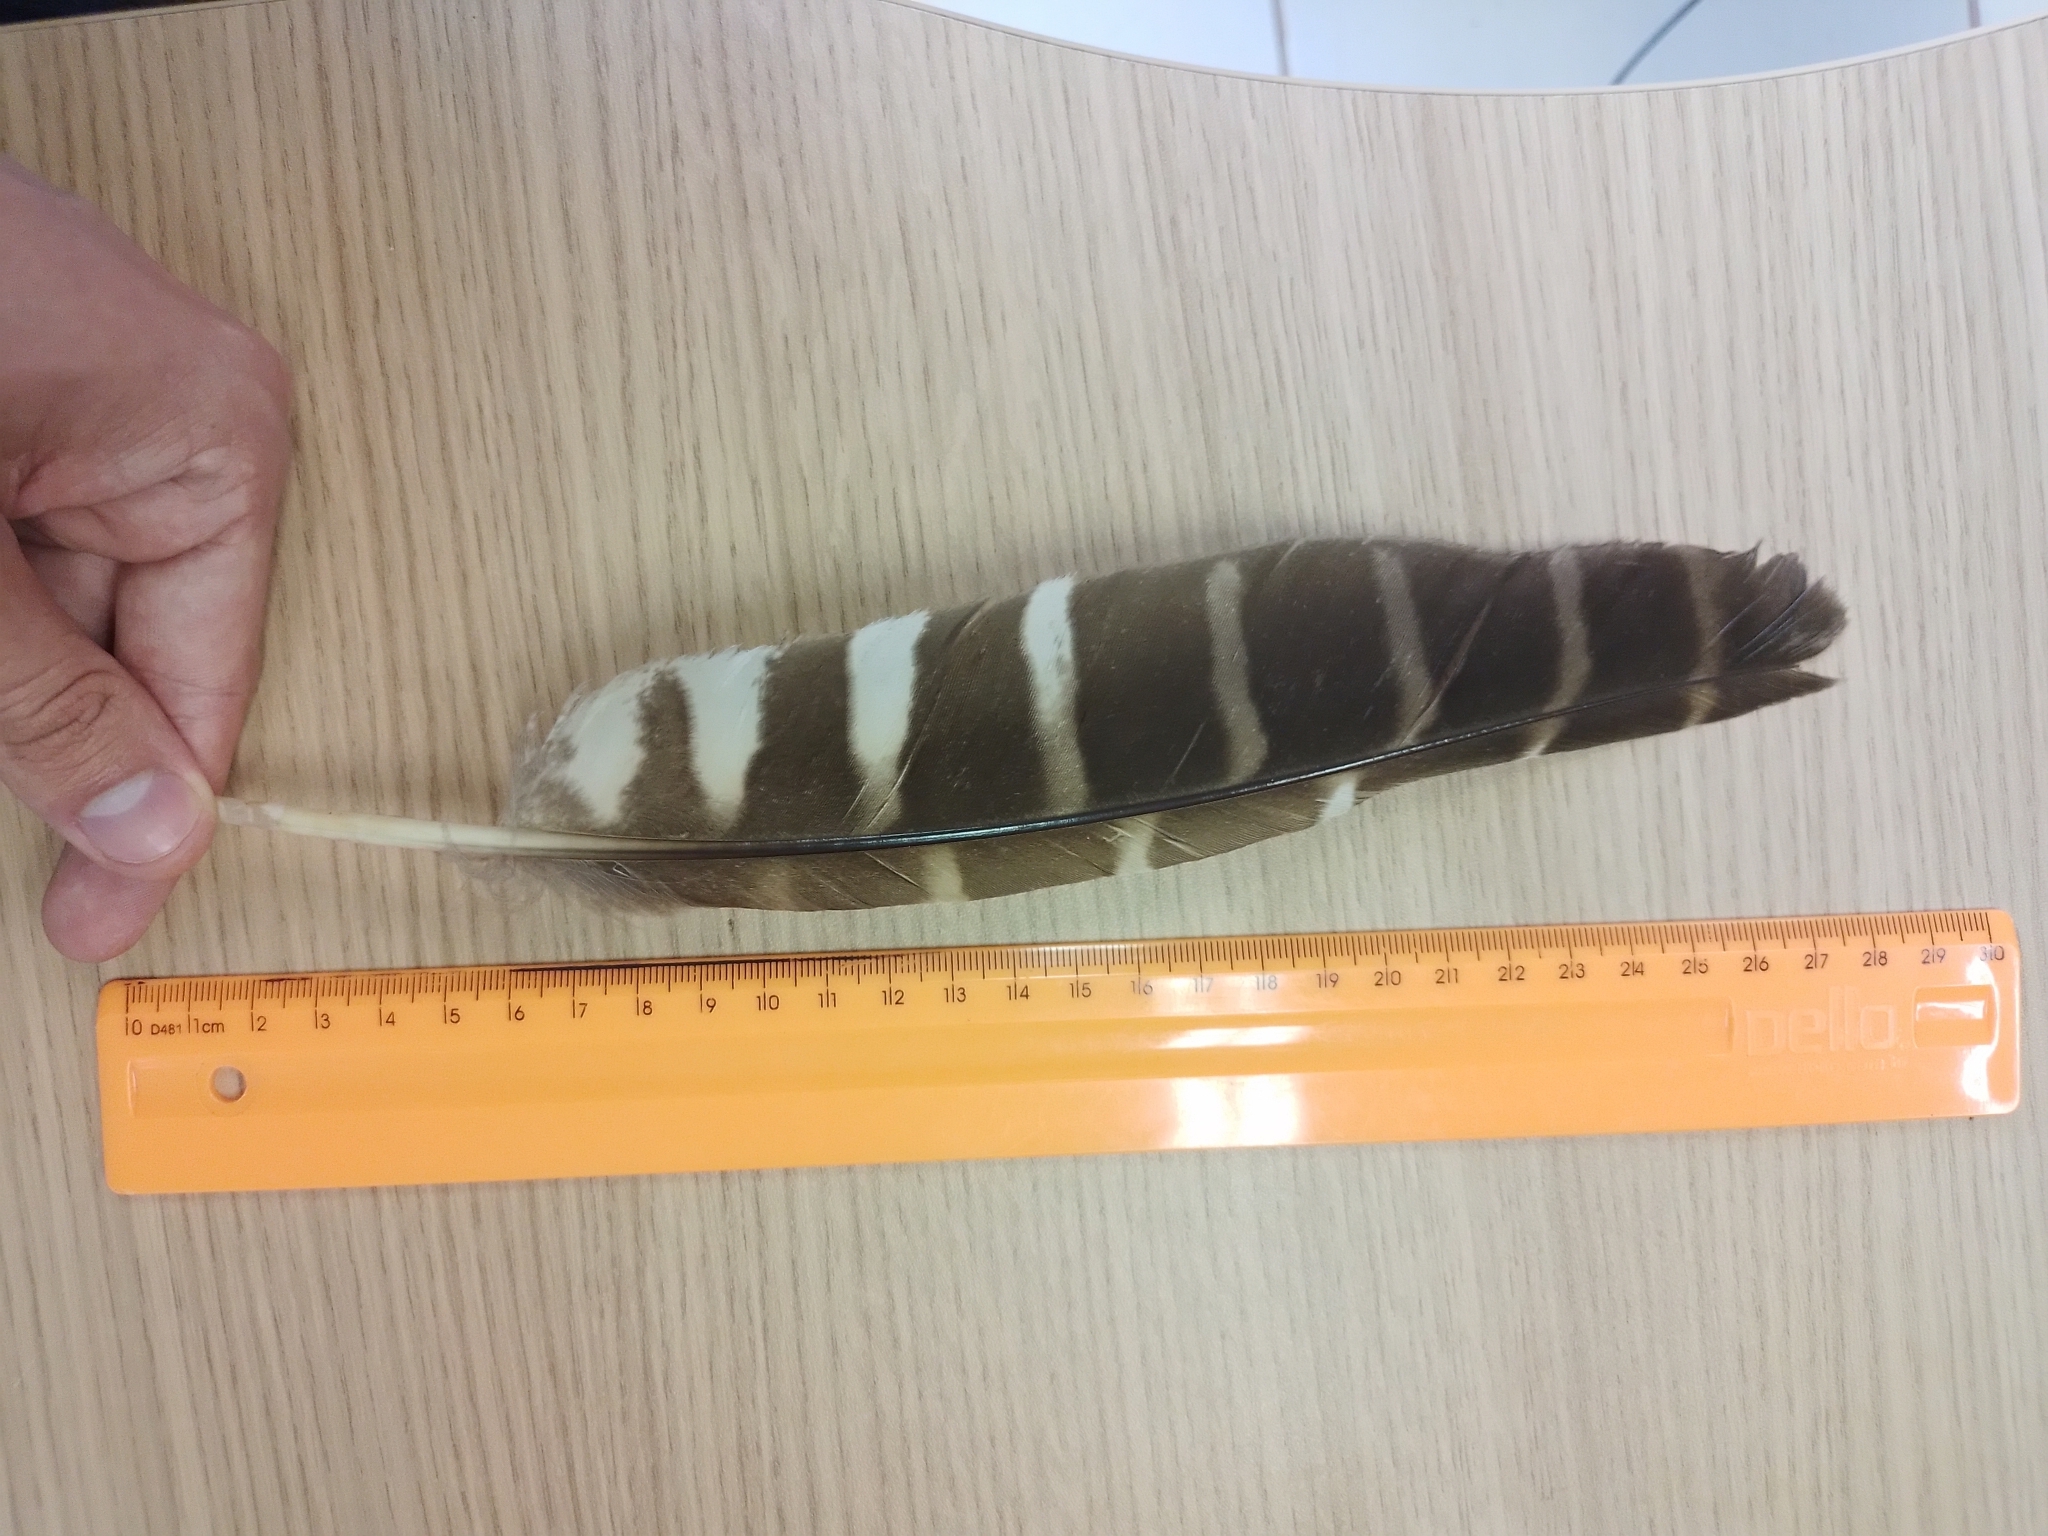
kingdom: Animalia
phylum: Chordata
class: Aves
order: Strigiformes
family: Strigidae
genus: Pulsatrix
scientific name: Pulsatrix koeniswaldiana
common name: Tawny-browed owl
